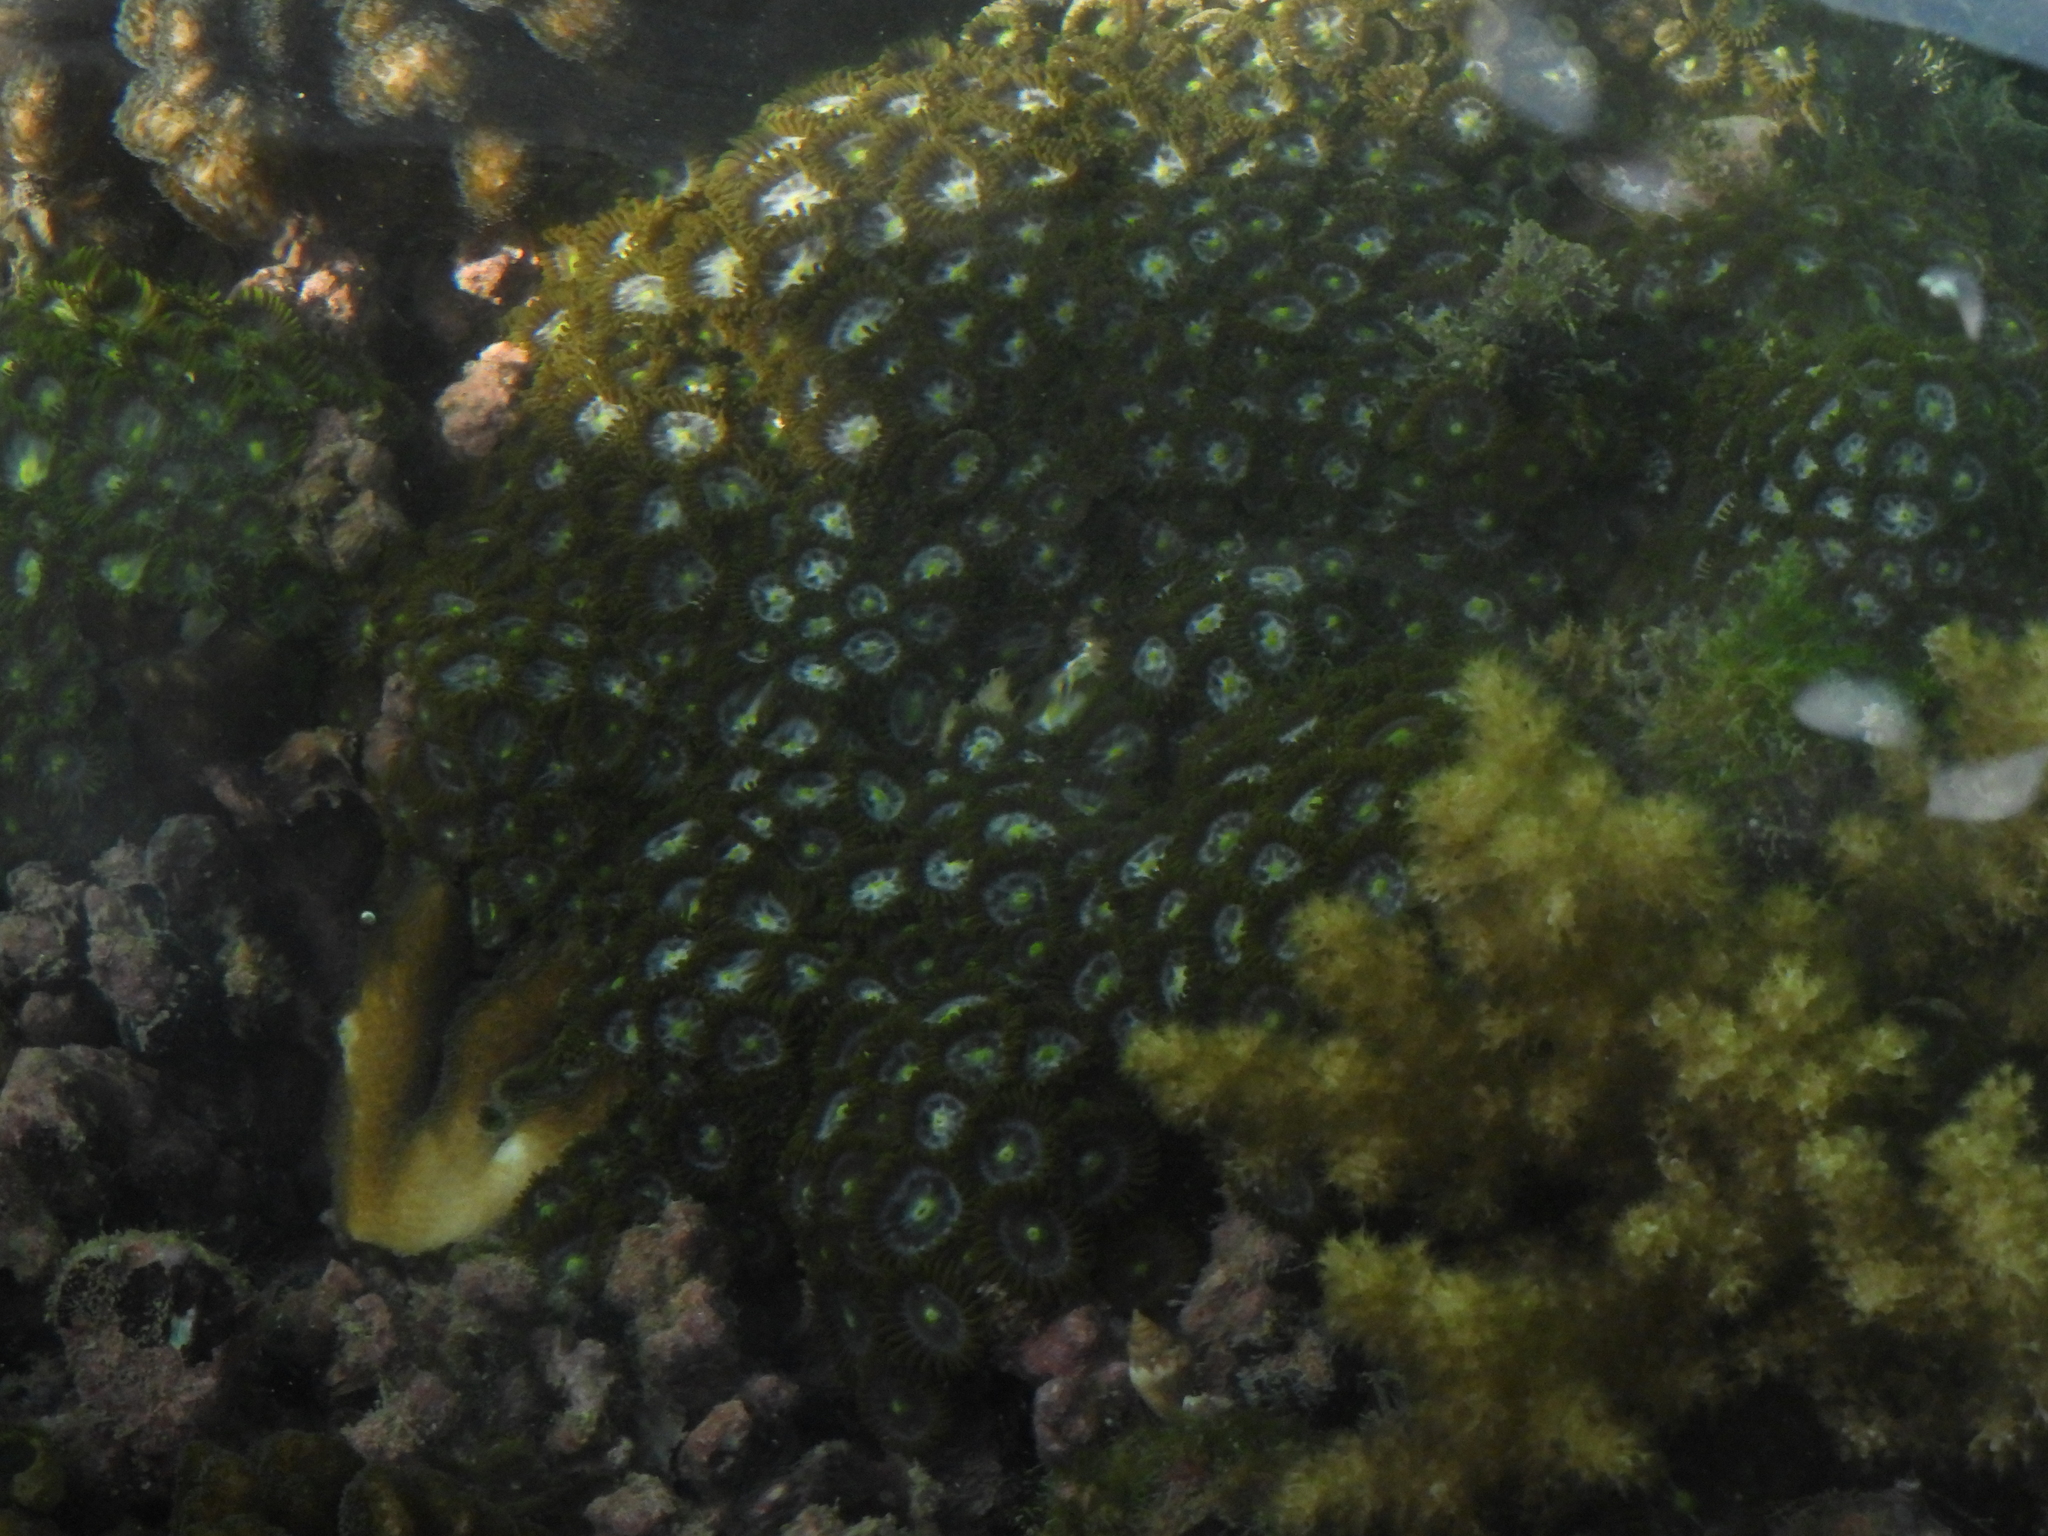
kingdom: Animalia
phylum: Cnidaria
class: Anthozoa
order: Zoantharia
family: Zoanthidae
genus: Zoanthus
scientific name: Zoanthus sansibaricus
